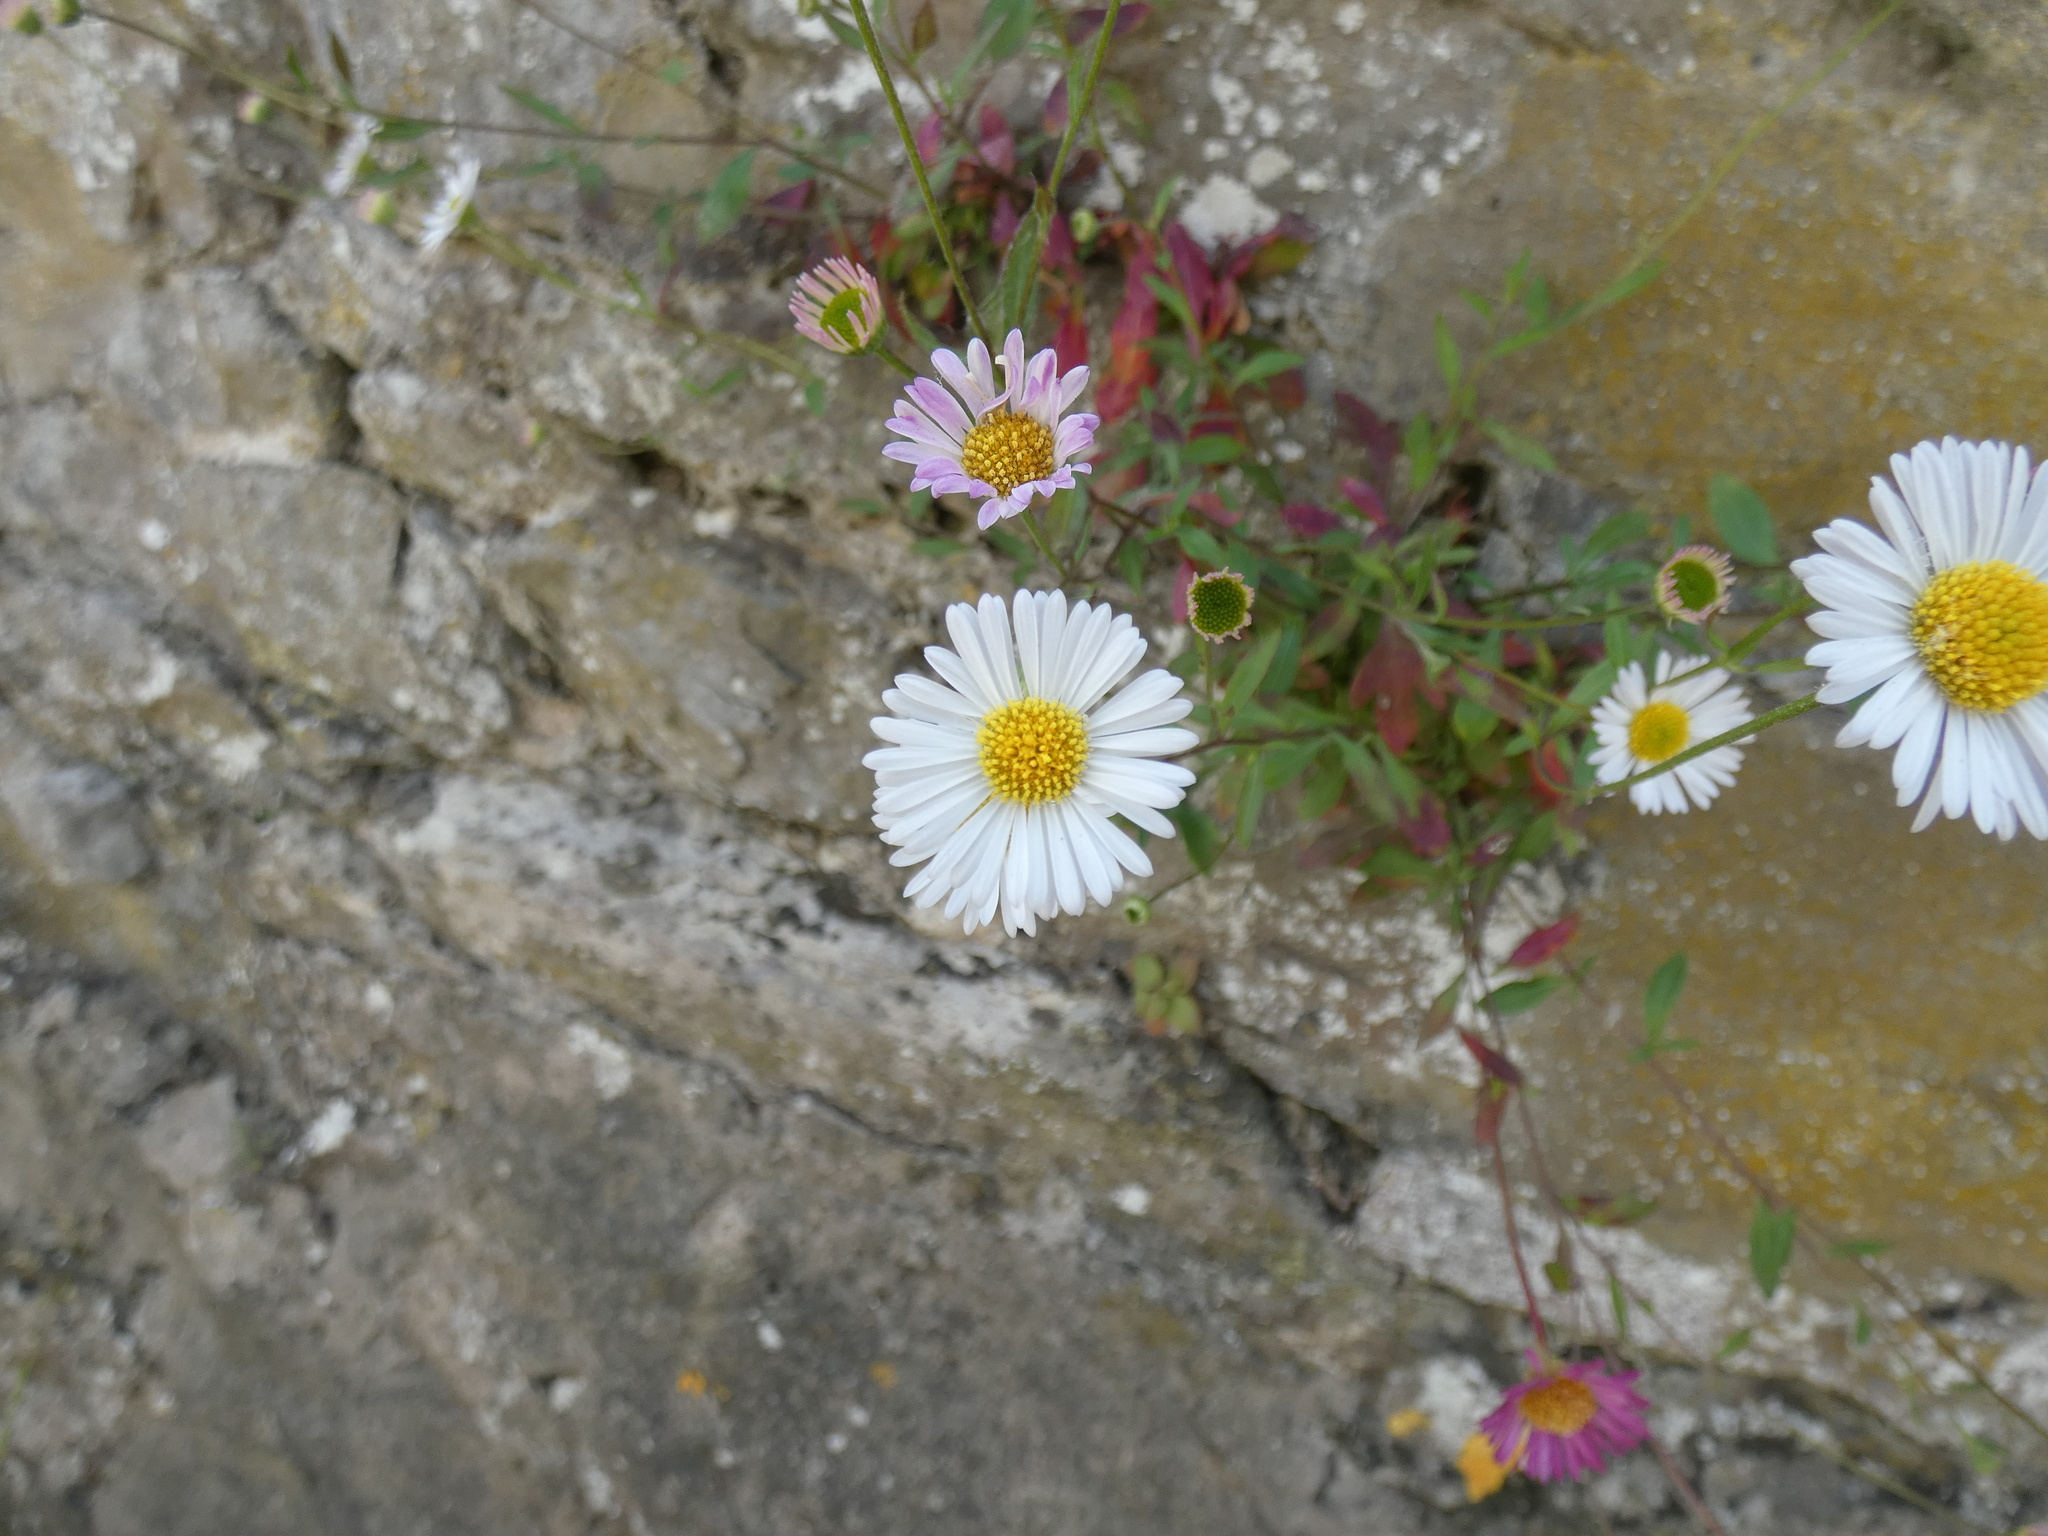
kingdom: Plantae
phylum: Tracheophyta
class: Magnoliopsida
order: Asterales
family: Asteraceae
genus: Erigeron
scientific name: Erigeron karvinskianus
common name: Mexican fleabane
